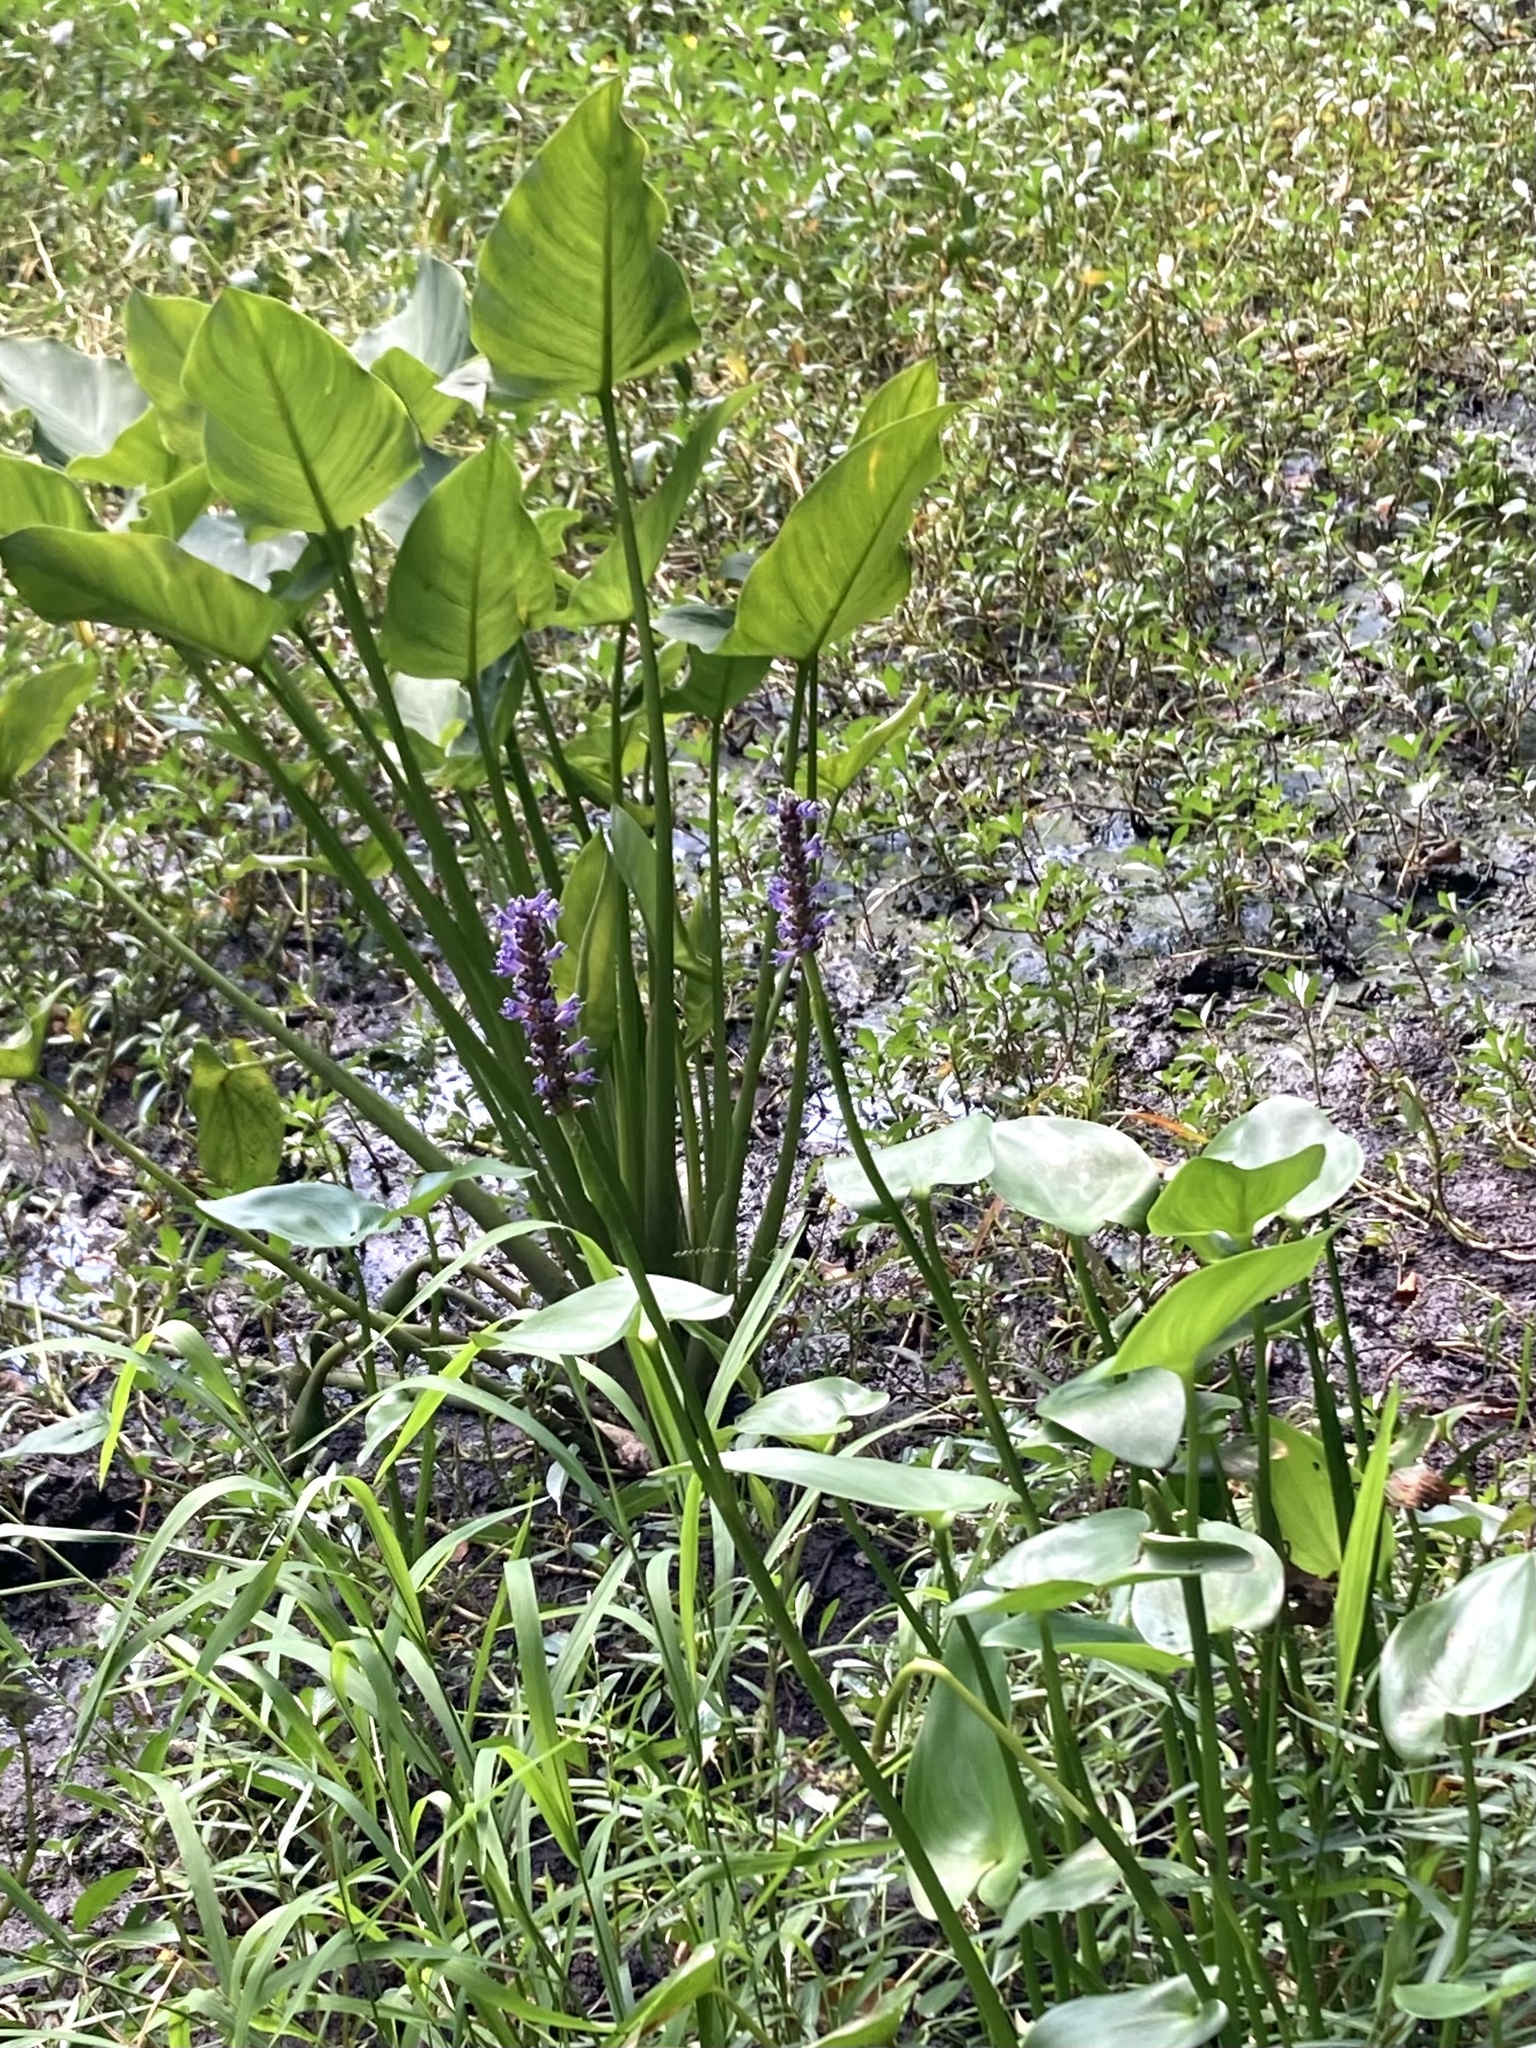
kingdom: Plantae
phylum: Tracheophyta
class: Liliopsida
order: Commelinales
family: Pontederiaceae
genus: Pontederia
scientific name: Pontederia cordata
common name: Pickerelweed
